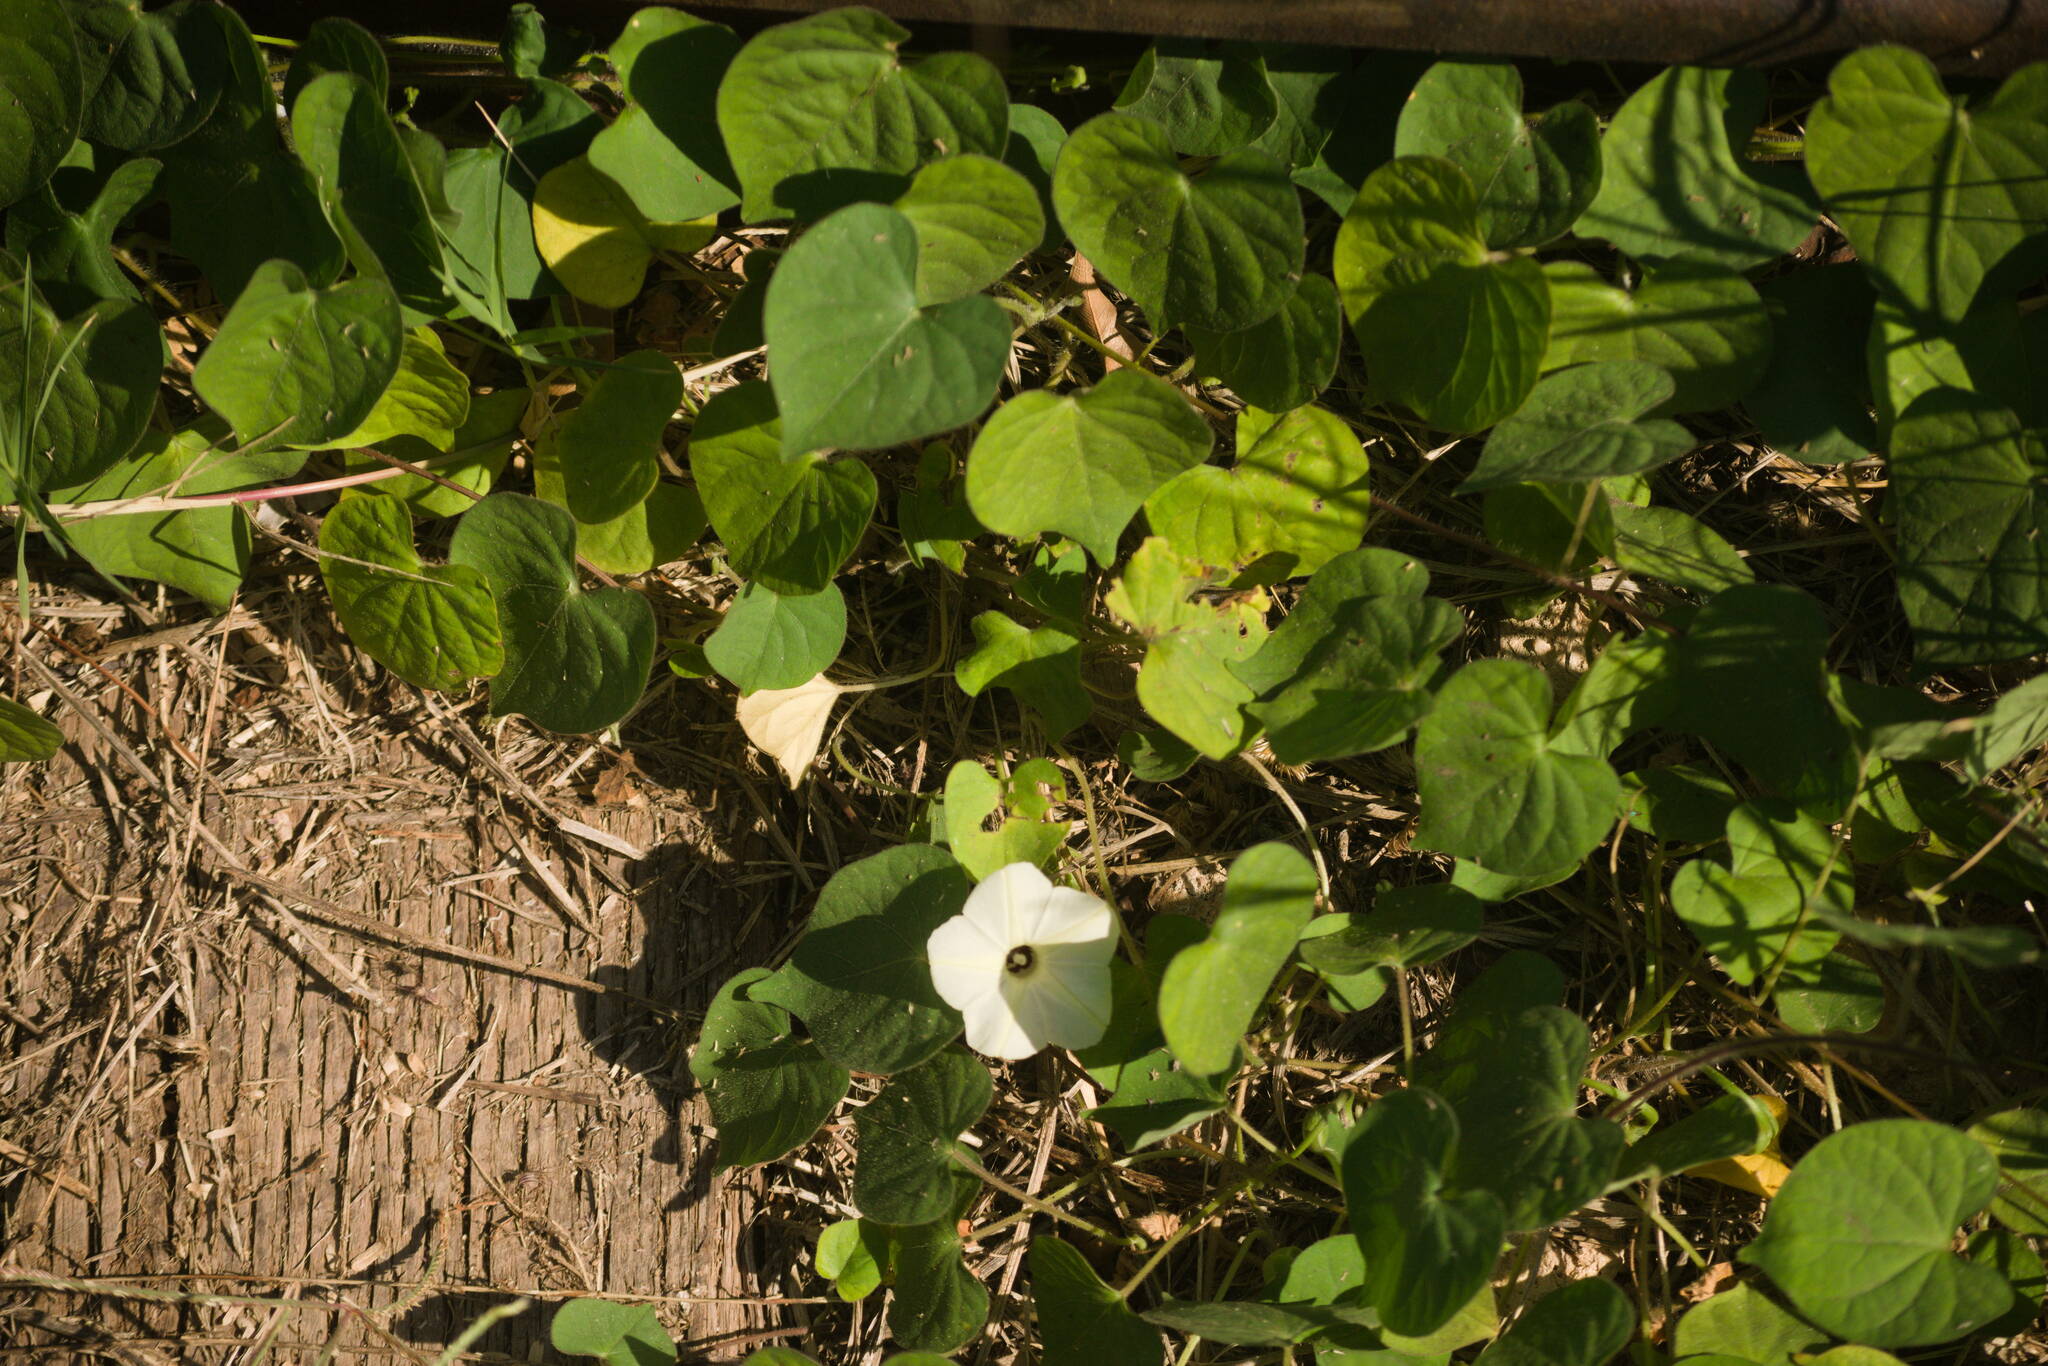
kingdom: Plantae
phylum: Tracheophyta
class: Magnoliopsida
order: Solanales
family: Convolvulaceae
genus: Ipomoea
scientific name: Ipomoea obscura
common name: Obscure morning-glory
